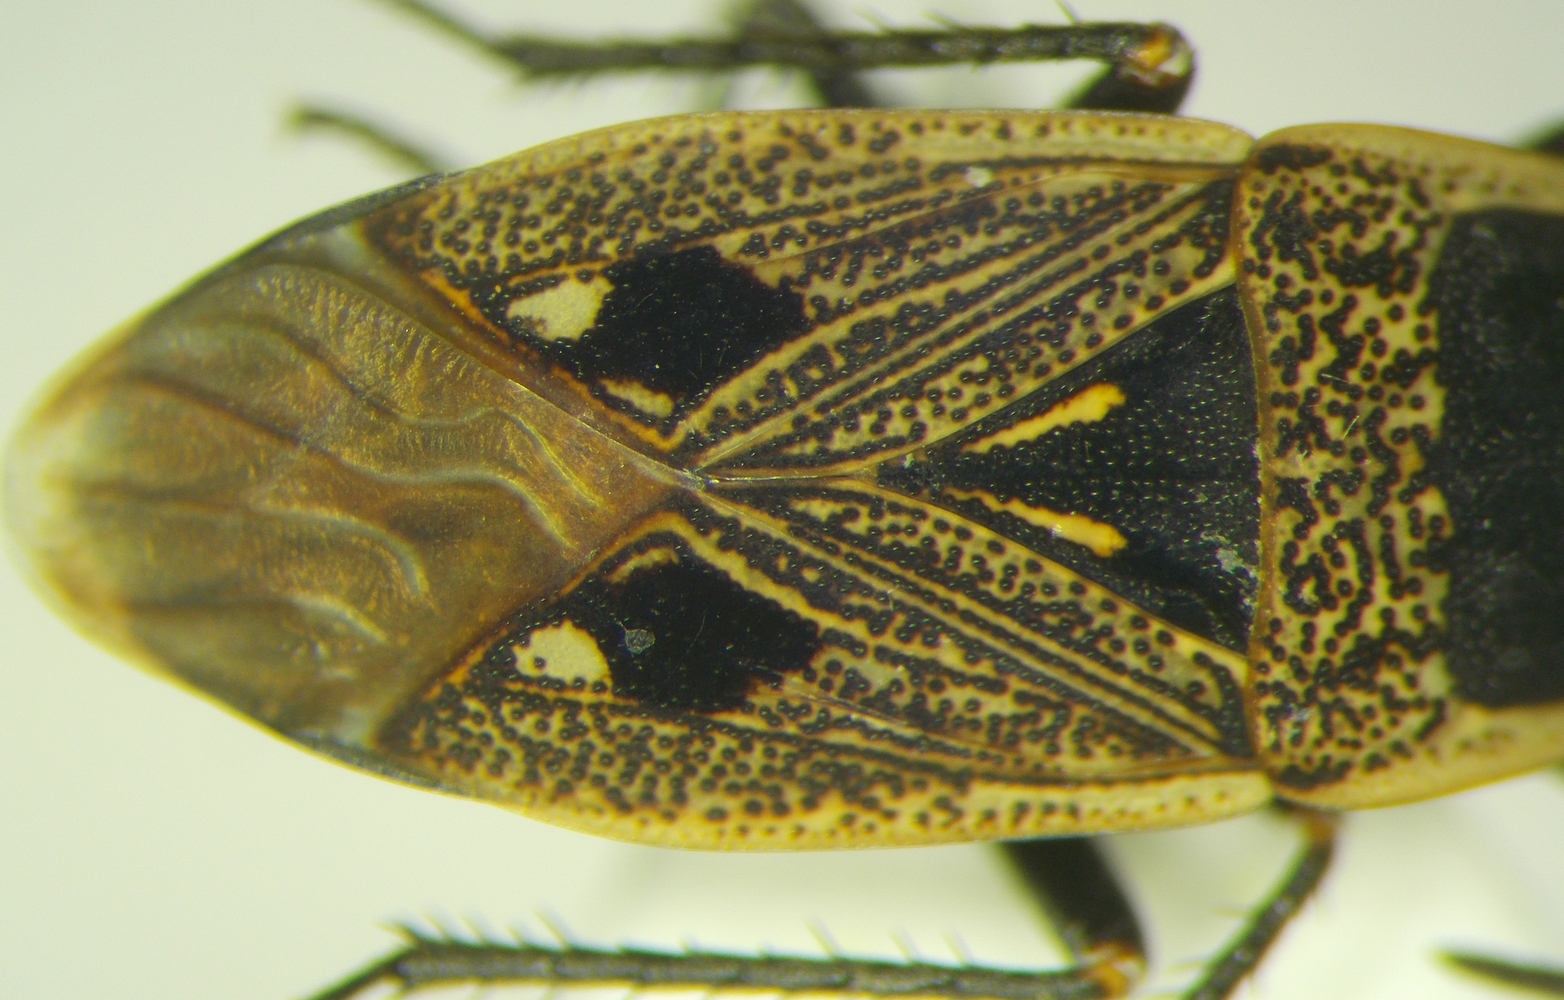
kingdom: Animalia
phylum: Arthropoda
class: Insecta
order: Hemiptera
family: Rhyparochromidae
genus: Graptopeltus
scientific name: Graptopeltus lynceus
